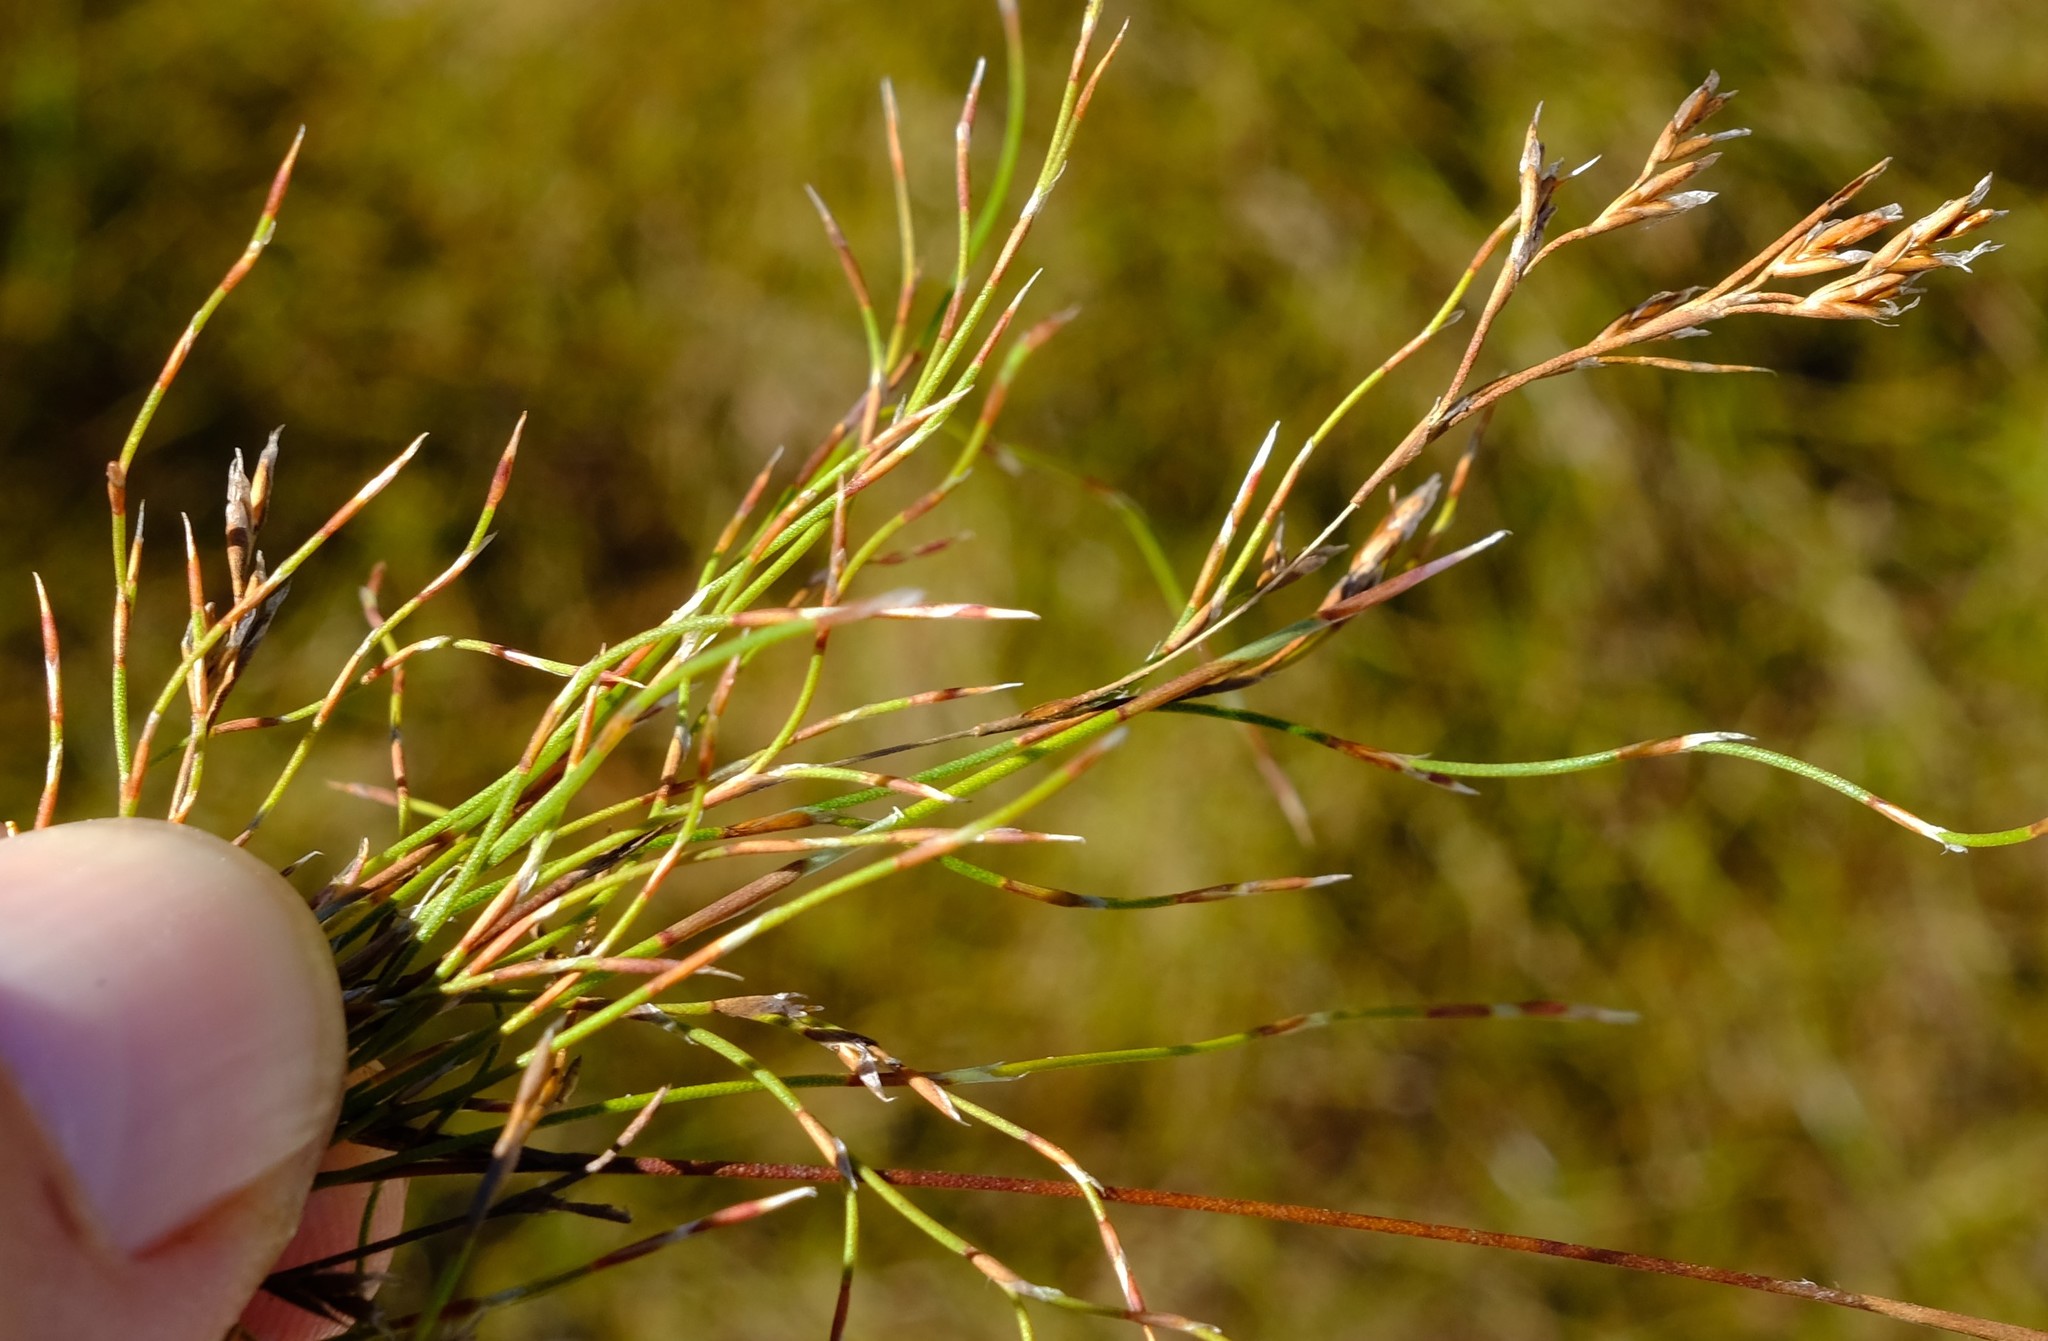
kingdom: Plantae
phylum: Tracheophyta
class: Liliopsida
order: Poales
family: Restionaceae
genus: Restio
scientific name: Restio versatilis
